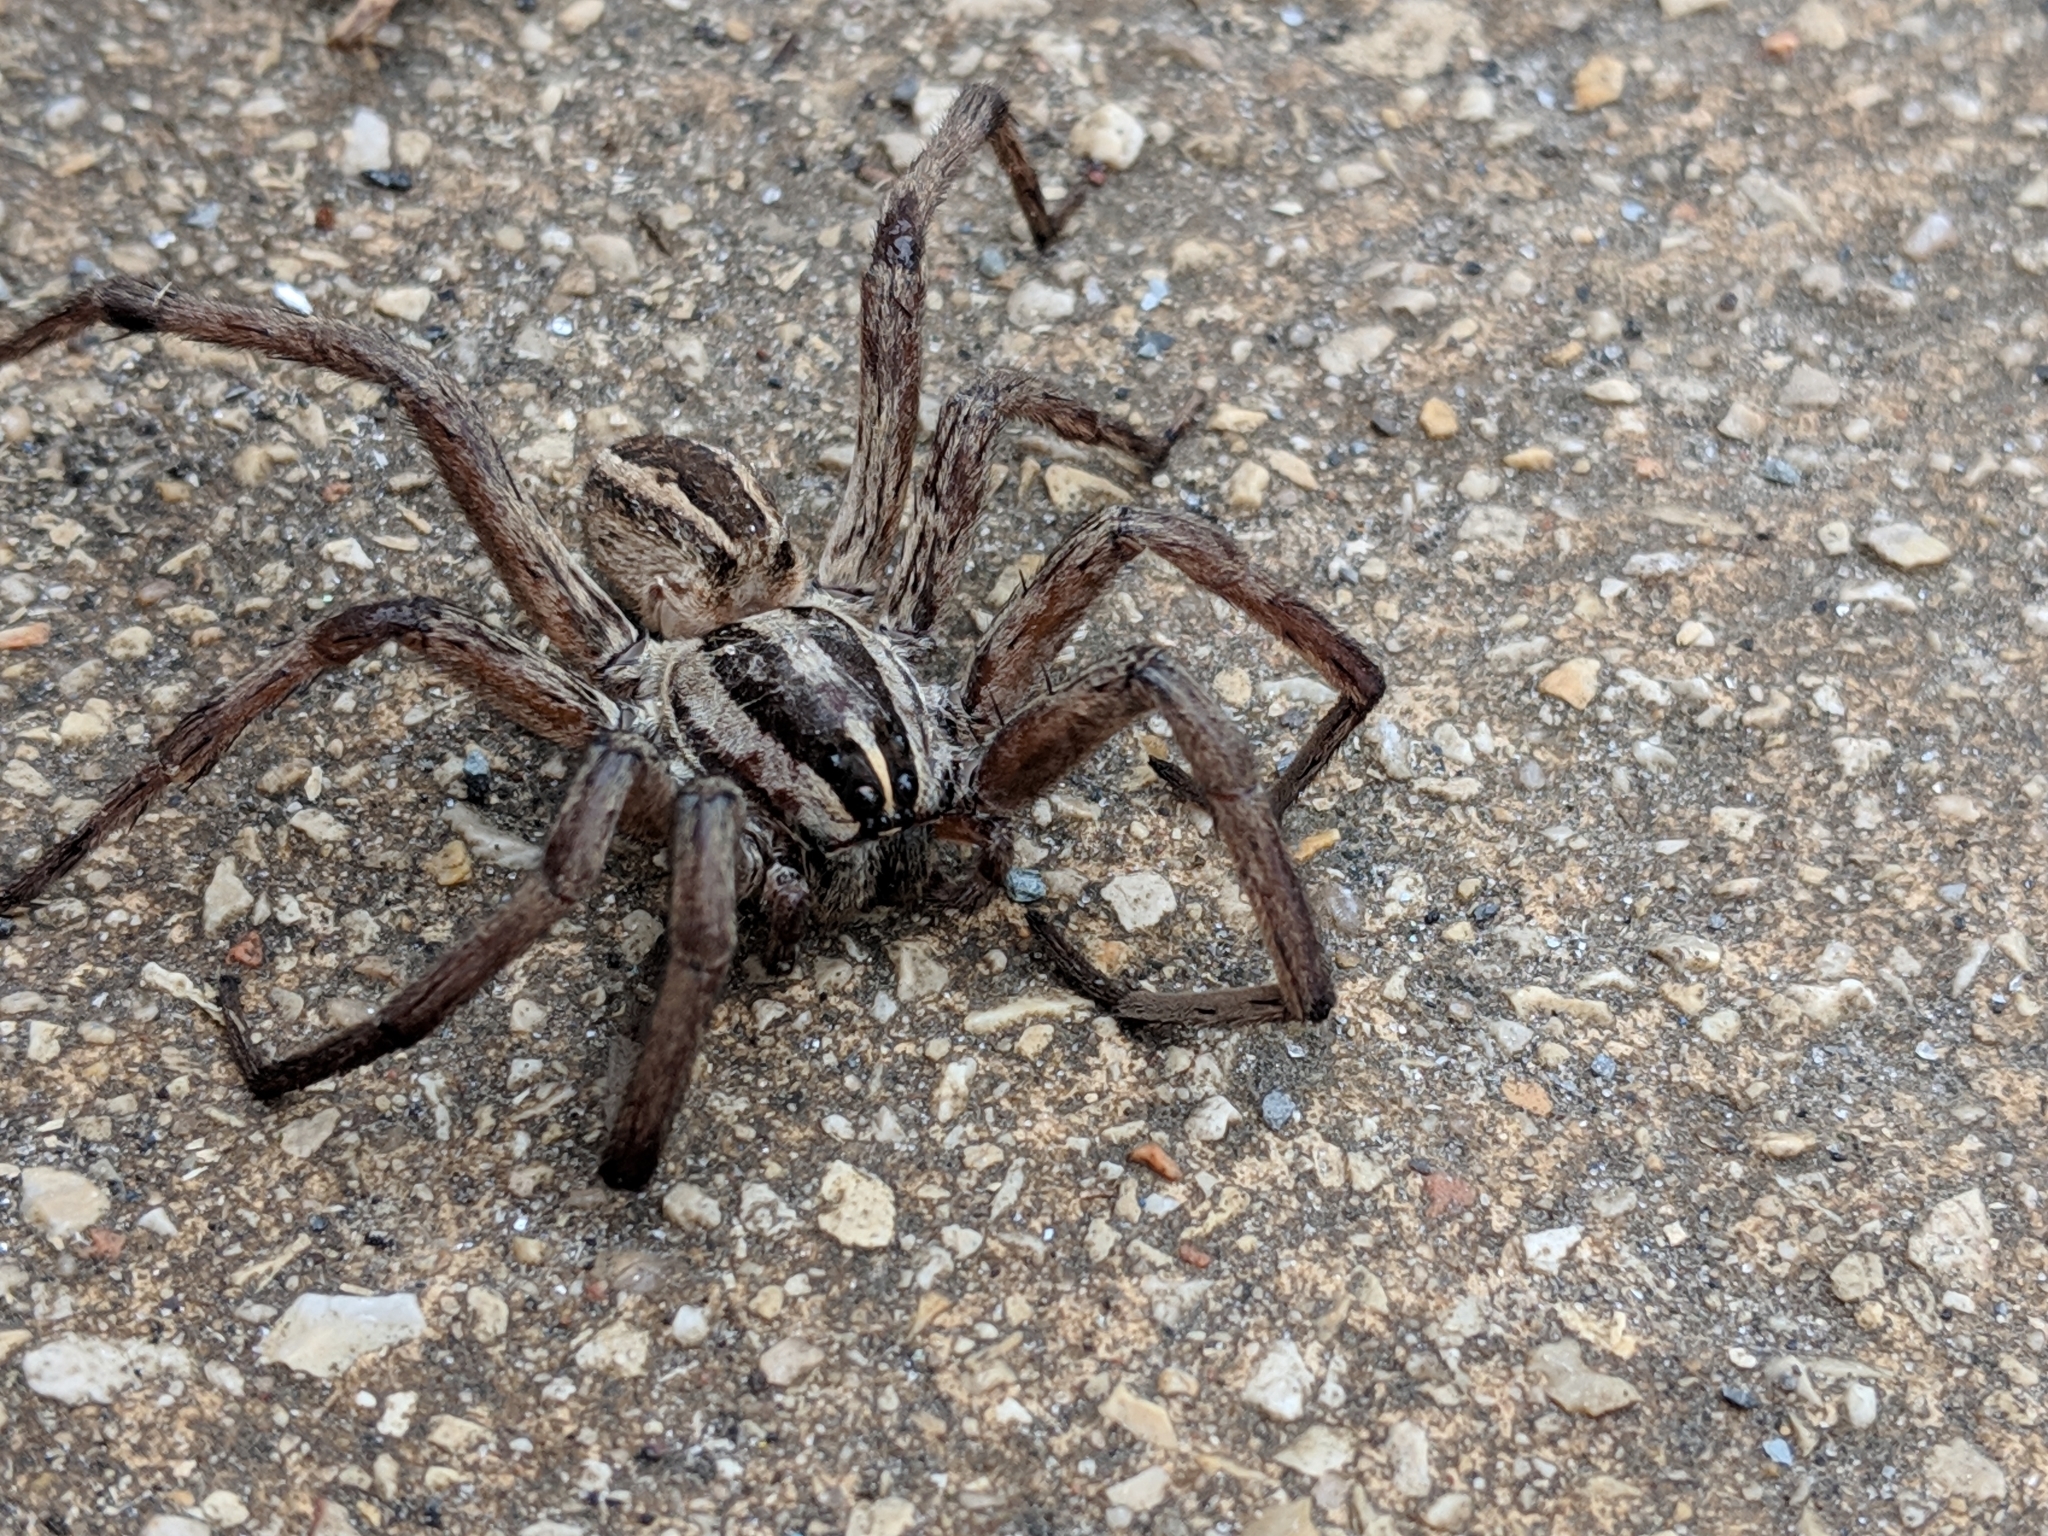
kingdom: Animalia
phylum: Arthropoda
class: Arachnida
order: Araneae
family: Lycosidae
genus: Rabidosa
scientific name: Rabidosa rabida
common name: Rabid wolf spider
